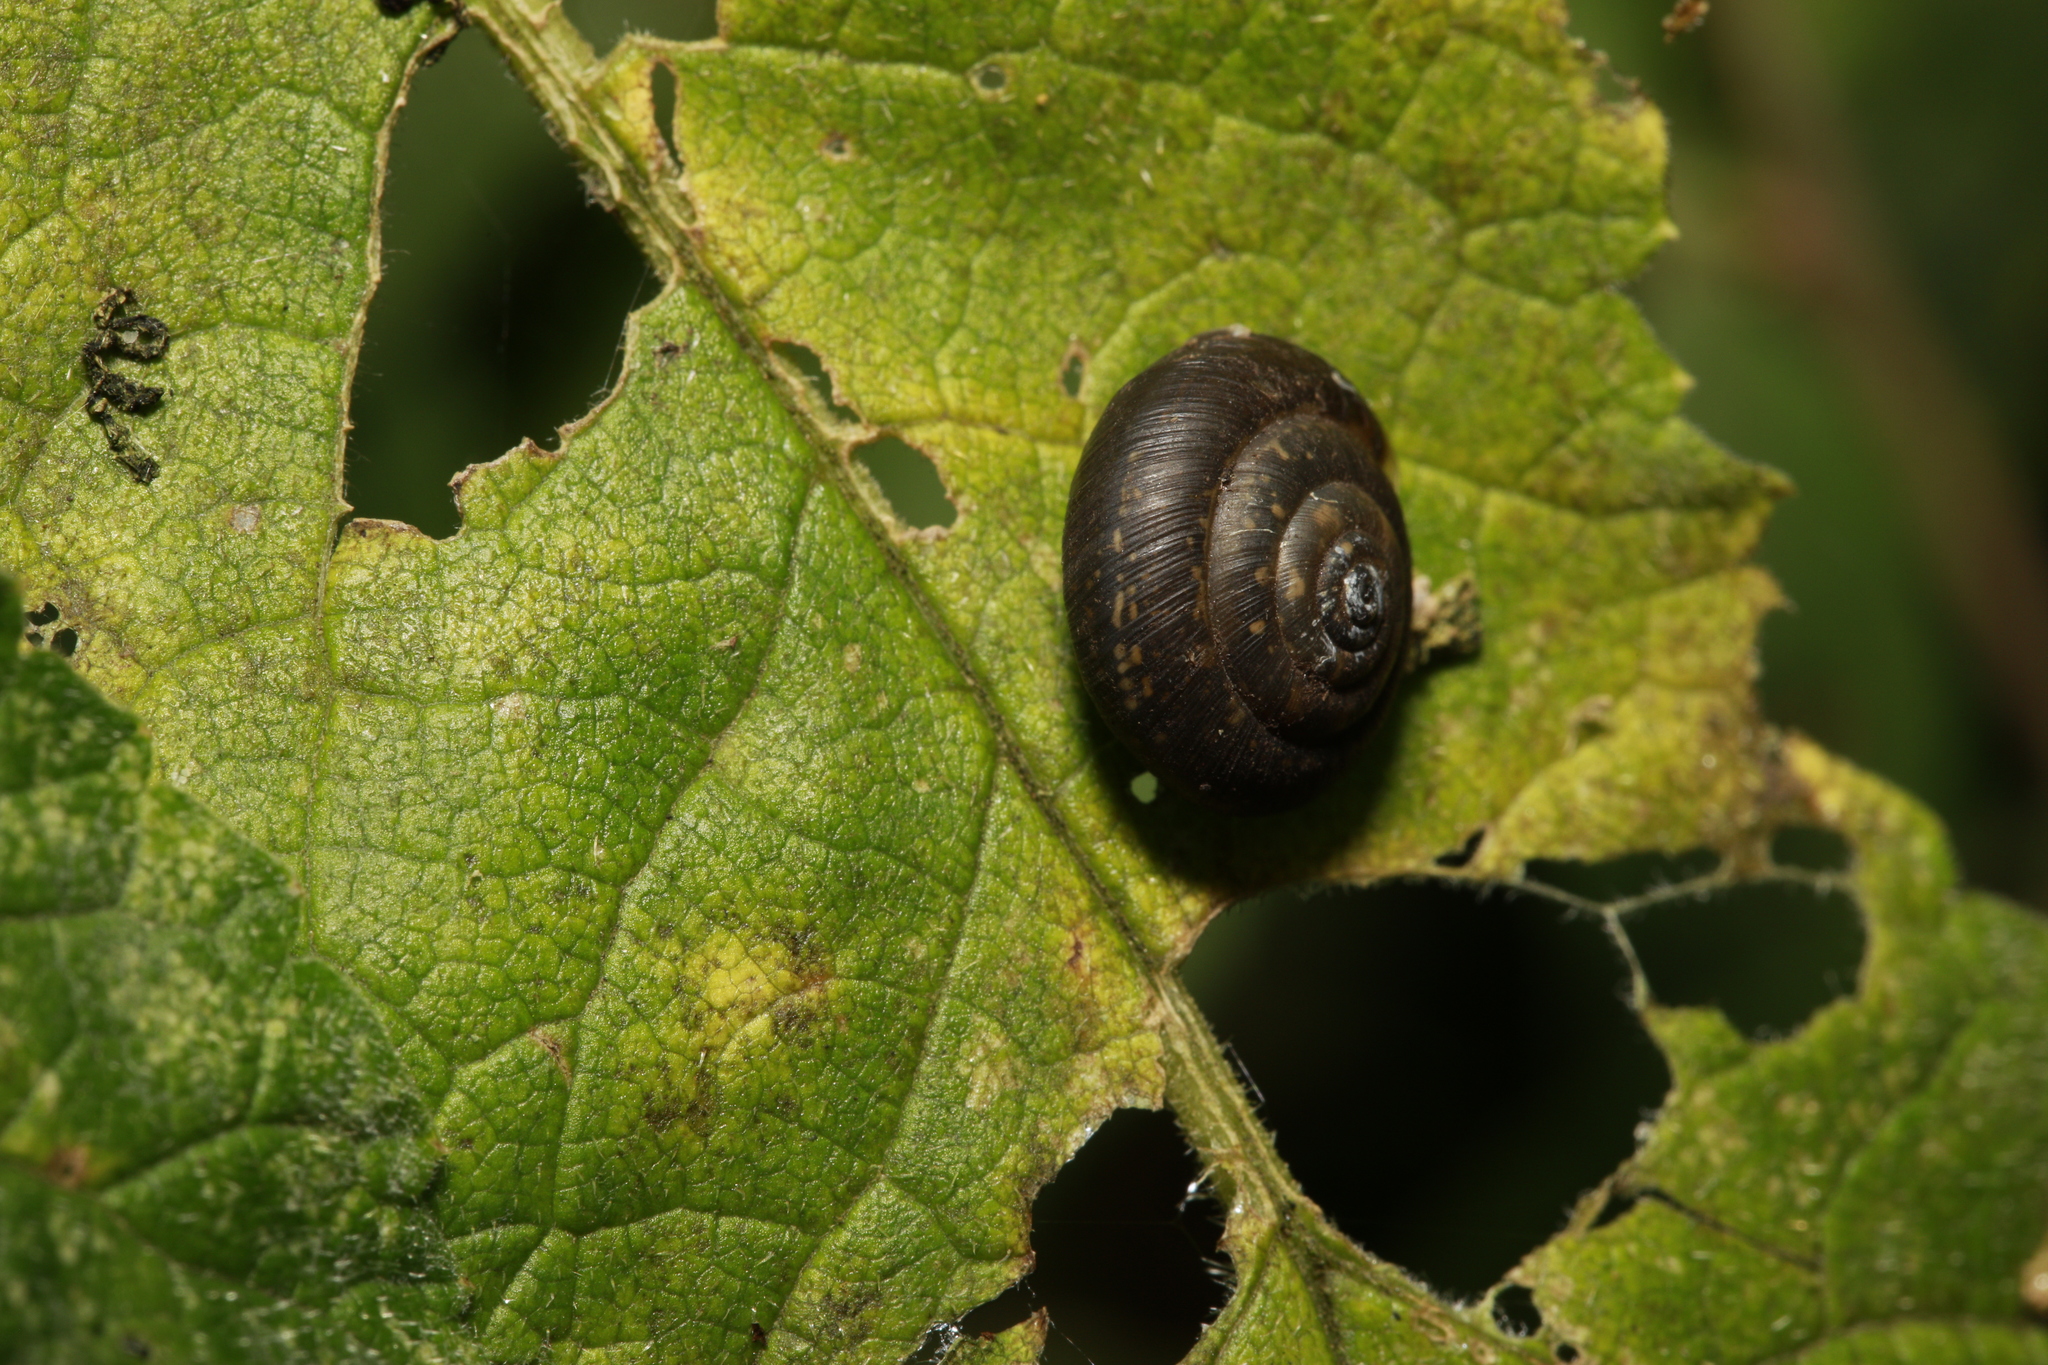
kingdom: Animalia
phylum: Mollusca
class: Gastropoda
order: Stylommatophora
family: Hygromiidae
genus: Trochulus
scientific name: Trochulus striolatus
